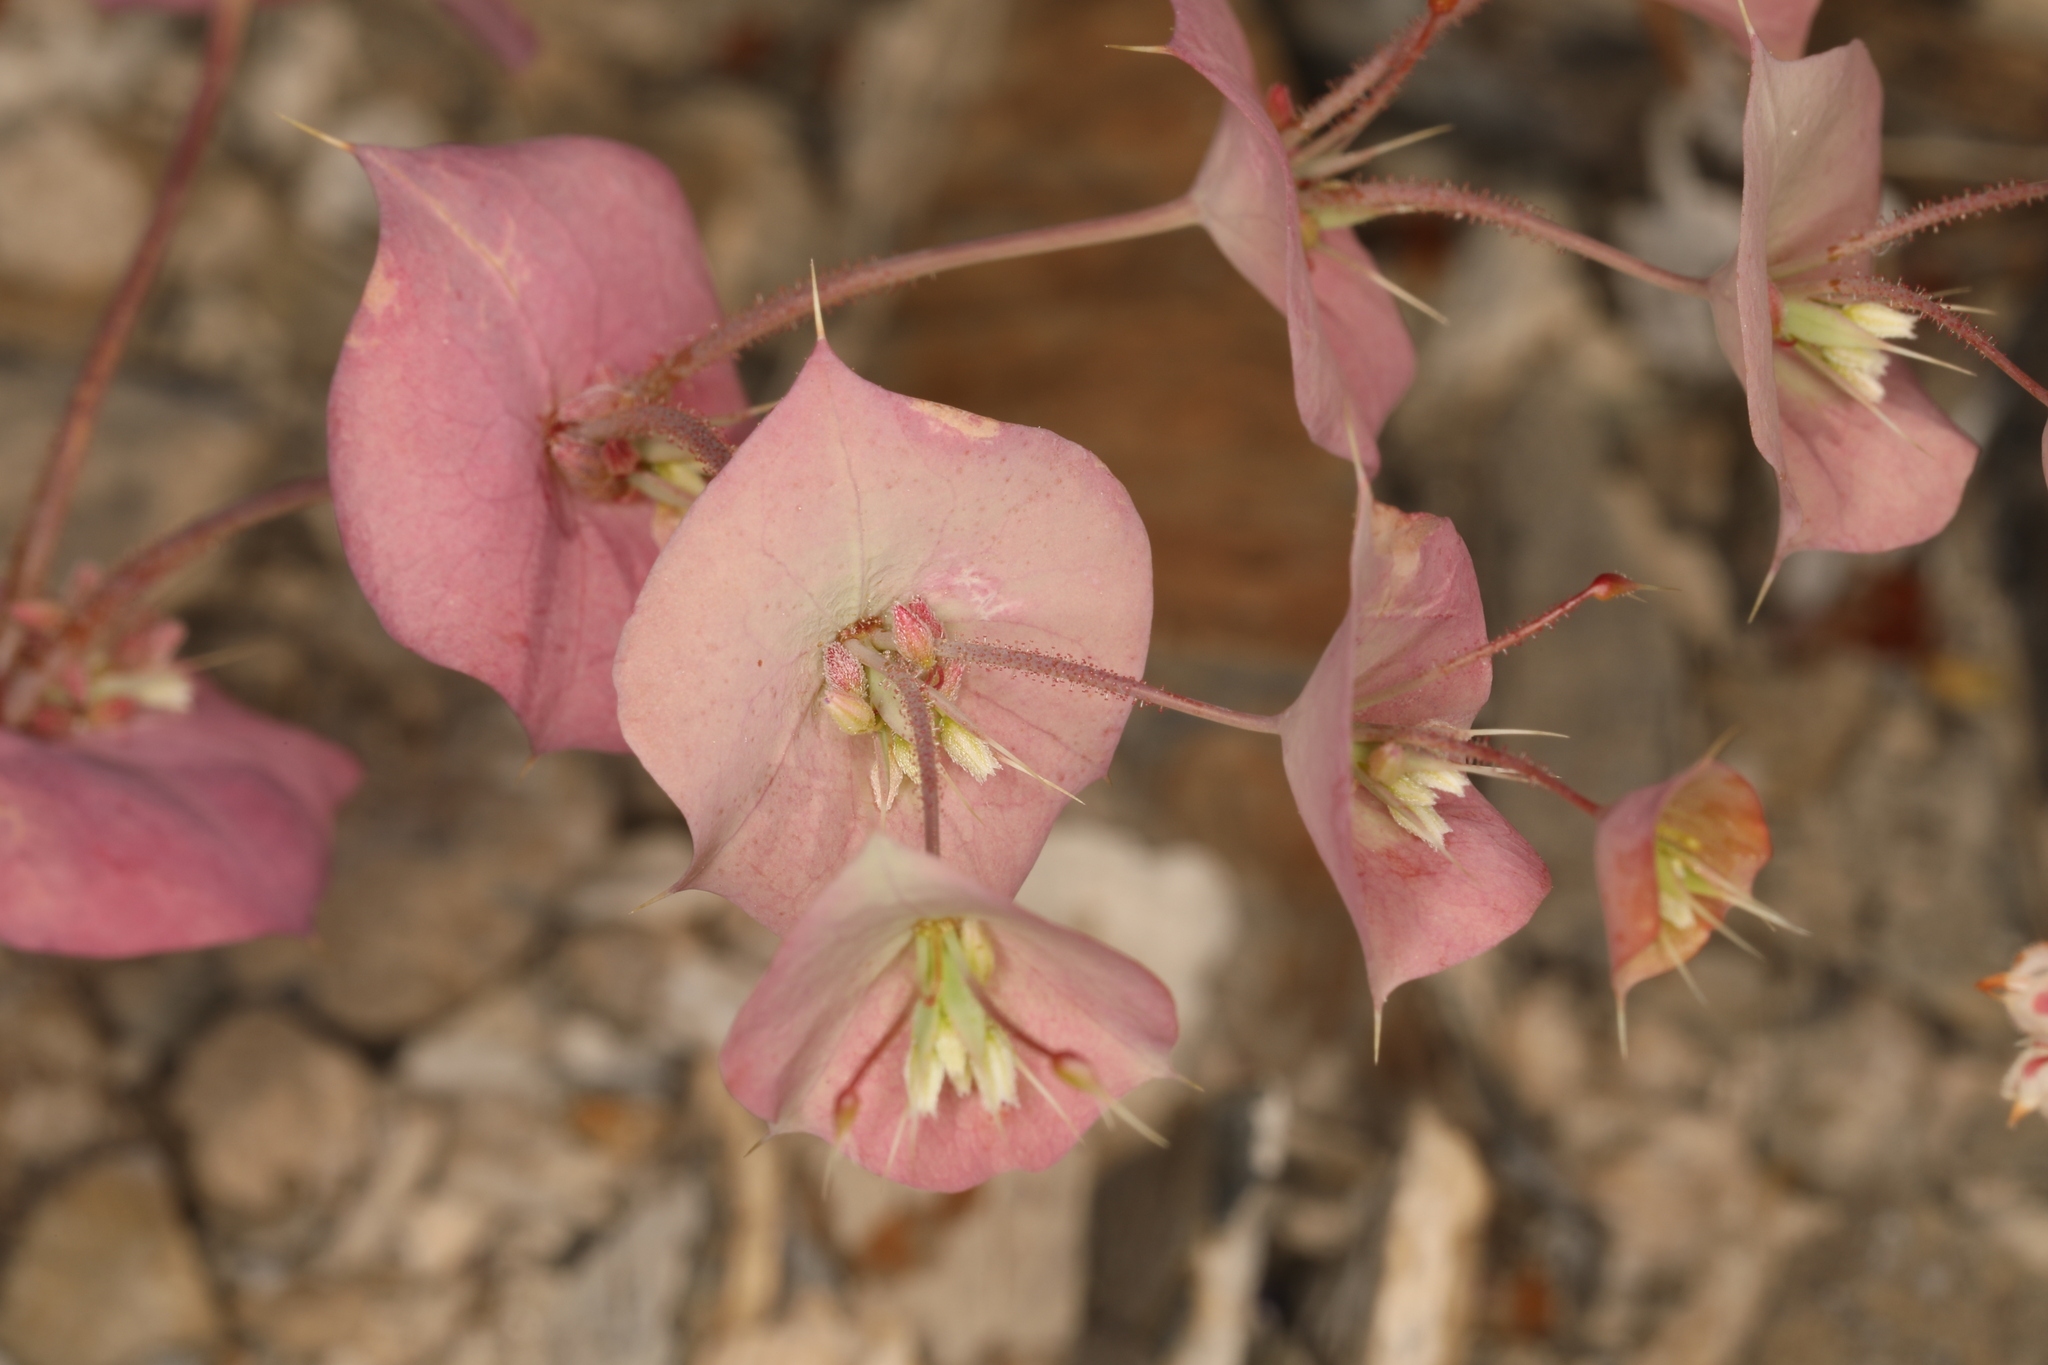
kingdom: Plantae
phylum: Tracheophyta
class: Magnoliopsida
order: Caryophyllales
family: Polygonaceae
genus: Oxytheca
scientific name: Oxytheca perfoliata
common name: Round-leaf puncturebract
